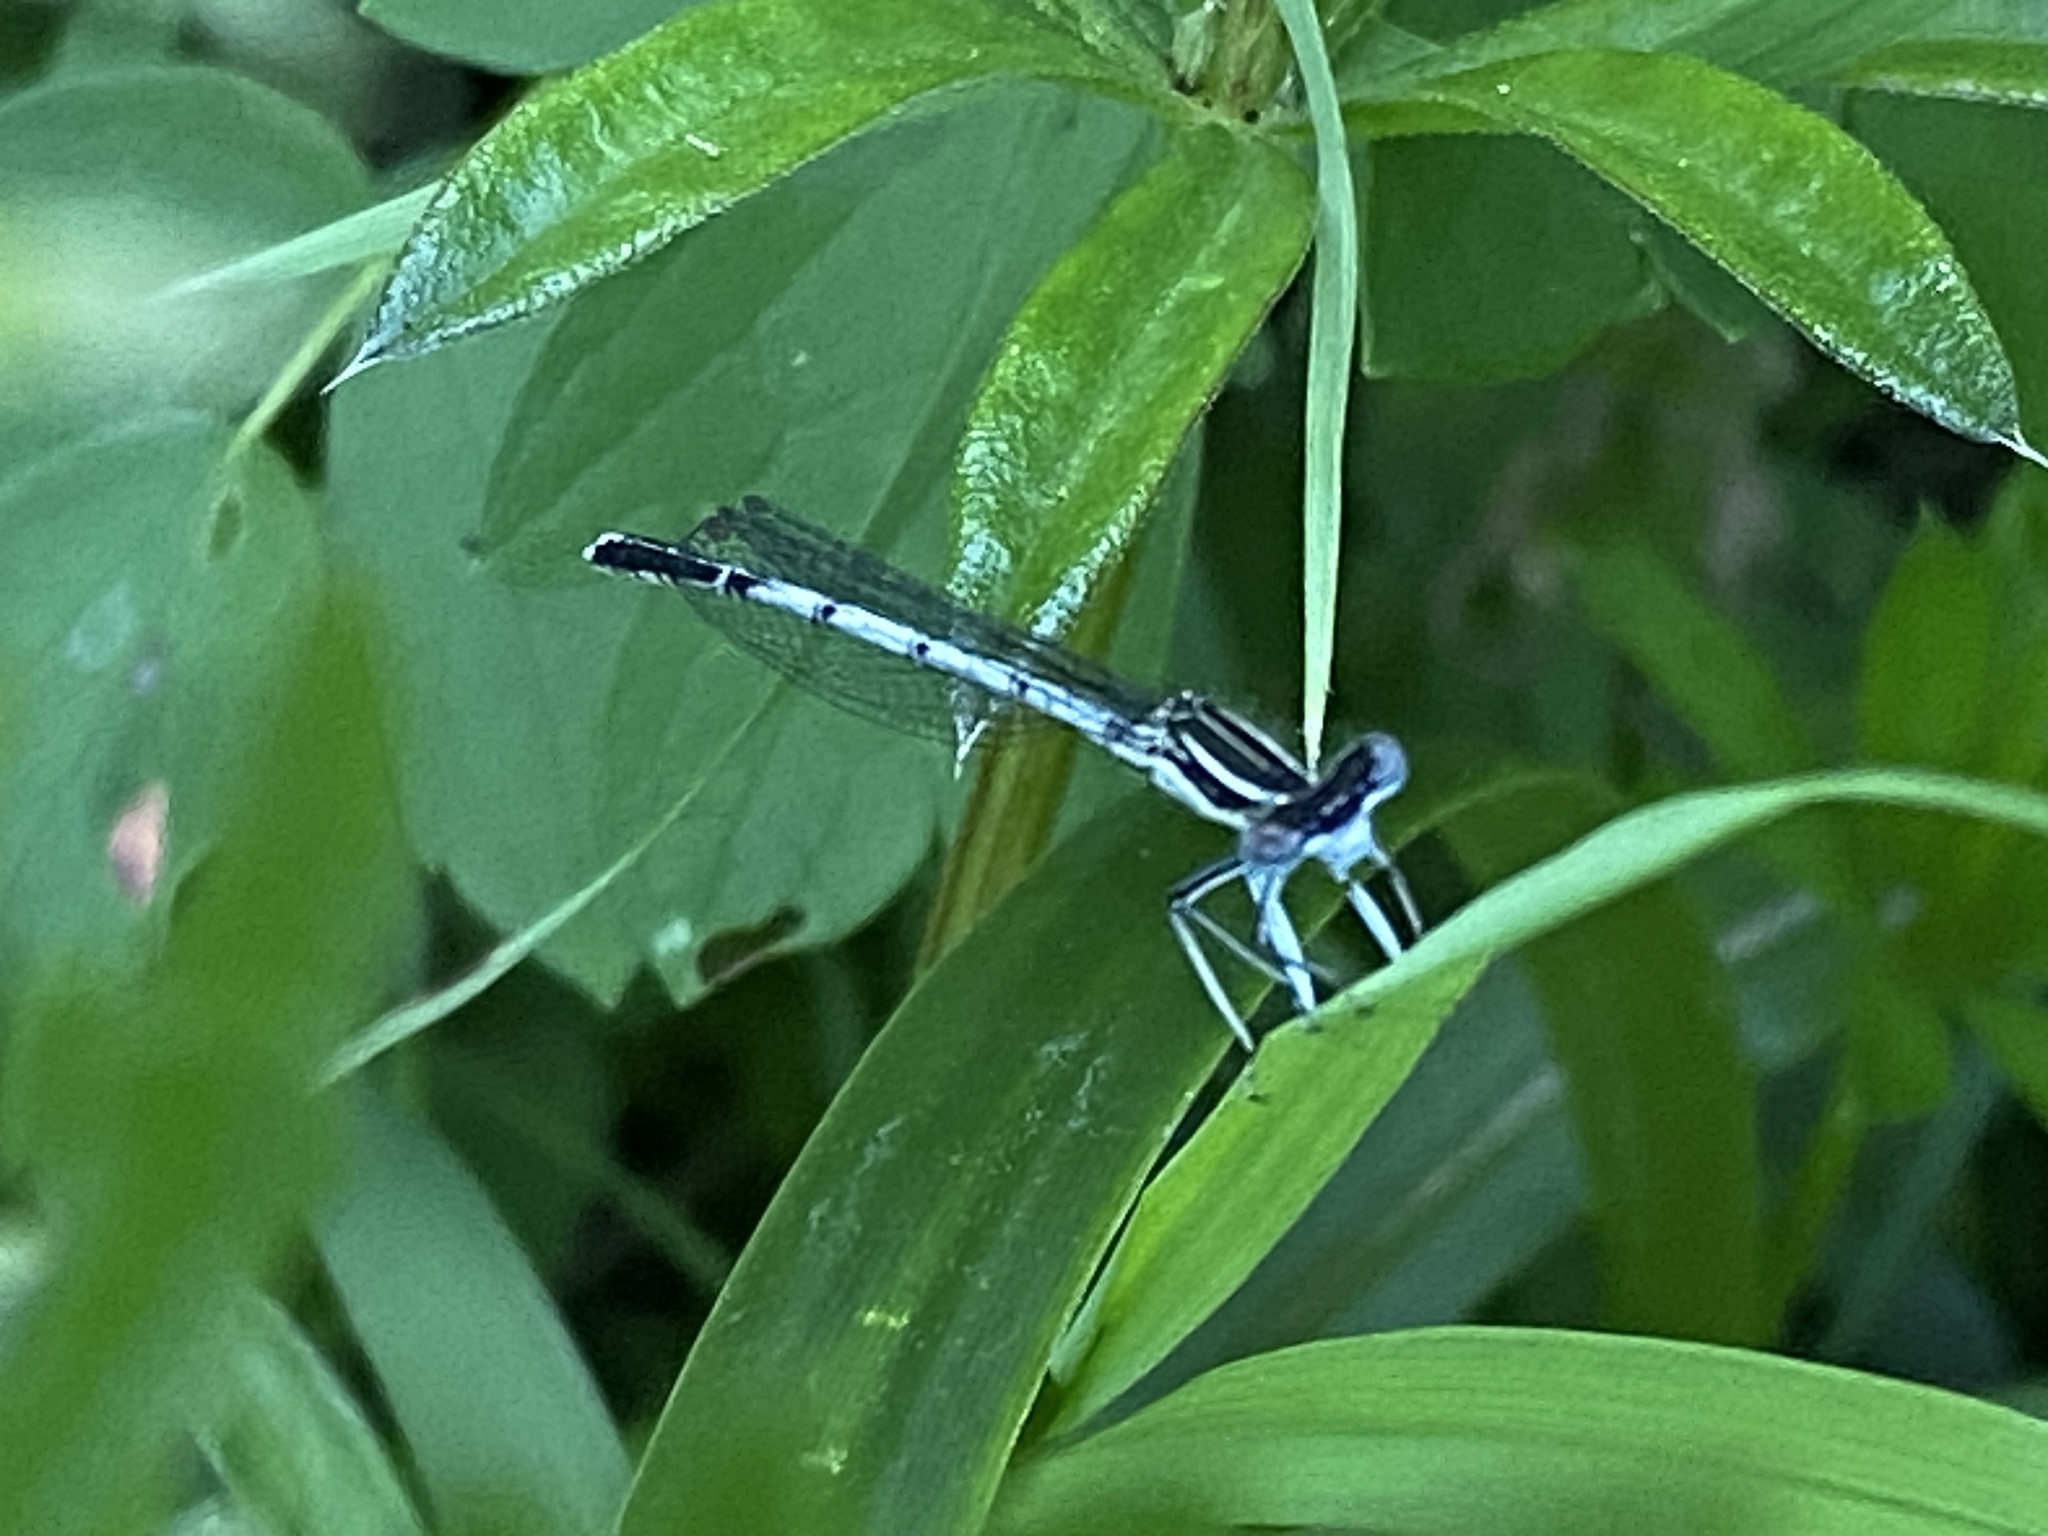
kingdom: Animalia
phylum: Arthropoda
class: Insecta
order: Odonata
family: Platycnemididae
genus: Platycnemis
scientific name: Platycnemis pennipes
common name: White-legged damselfly
